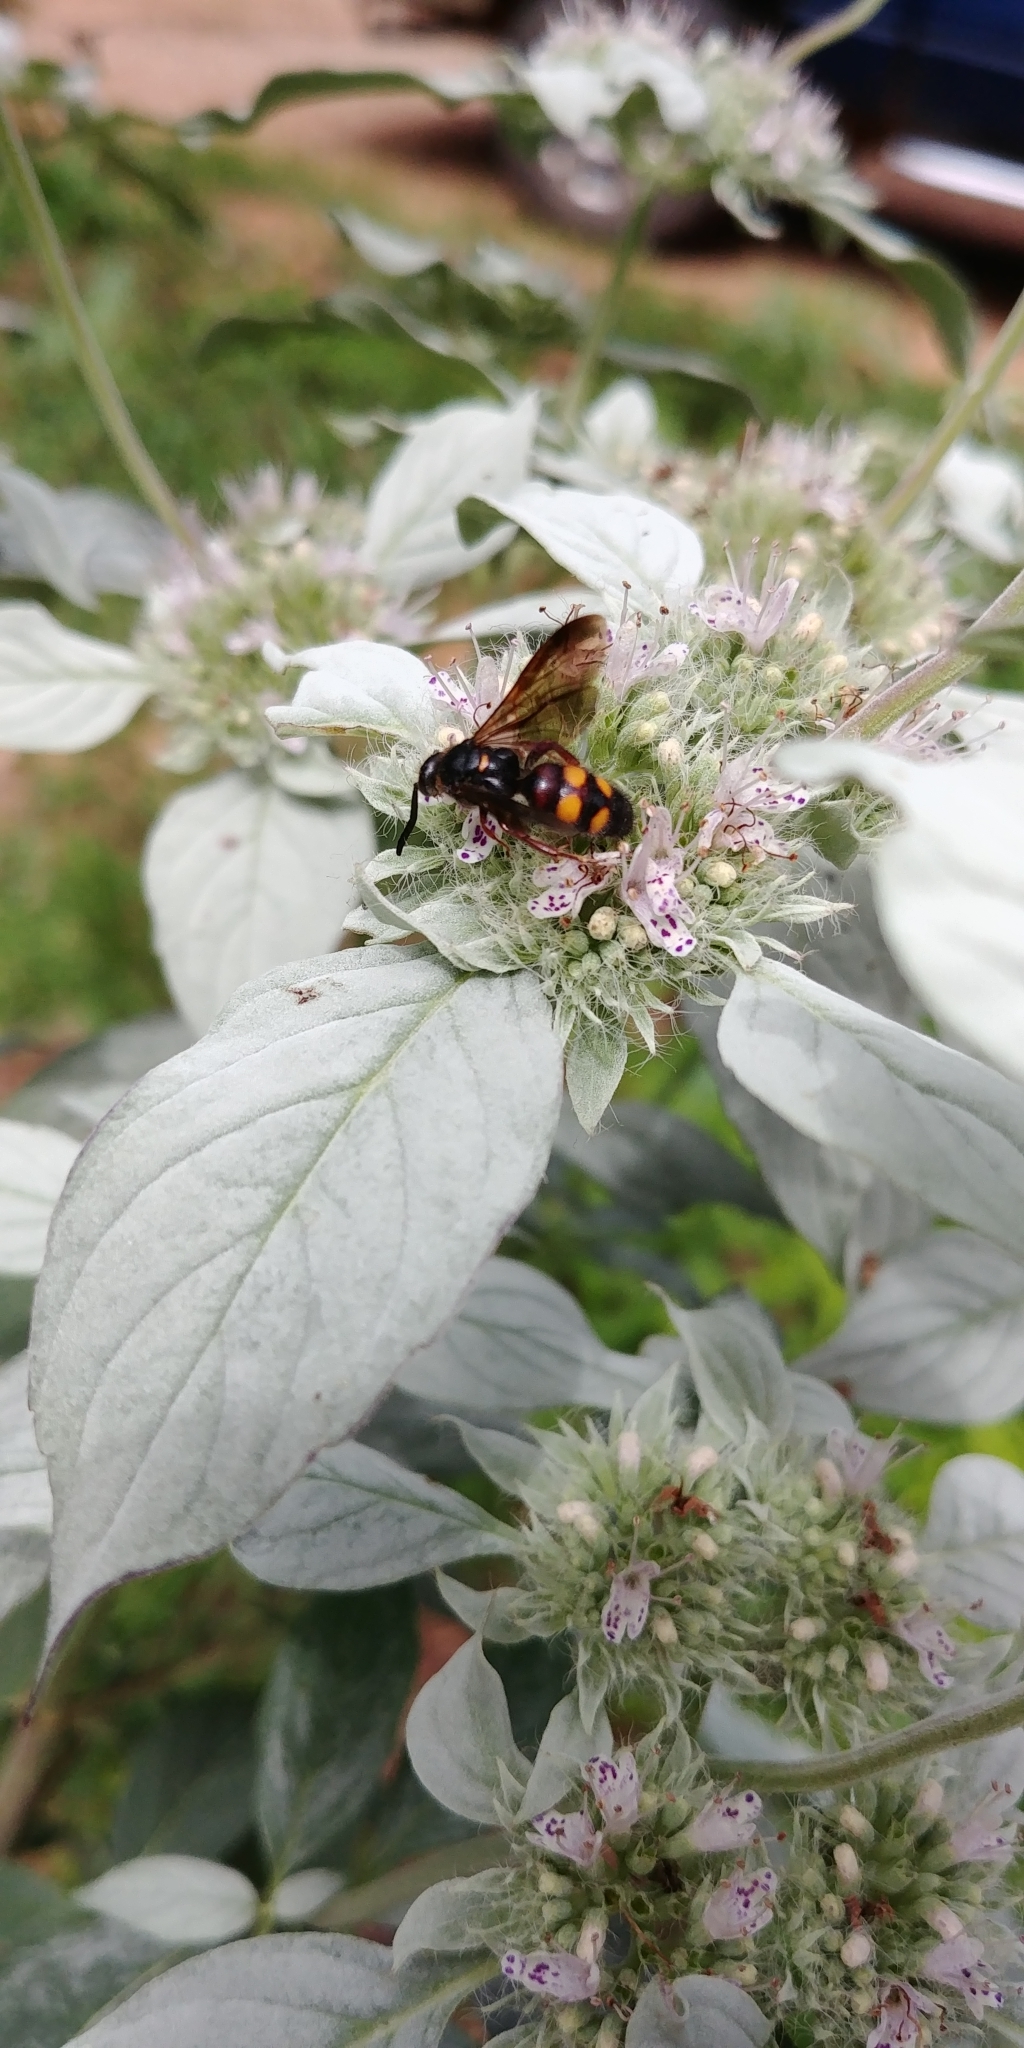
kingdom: Animalia
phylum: Arthropoda
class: Insecta
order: Hymenoptera
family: Scoliidae
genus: Scolia
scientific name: Scolia nobilitata
